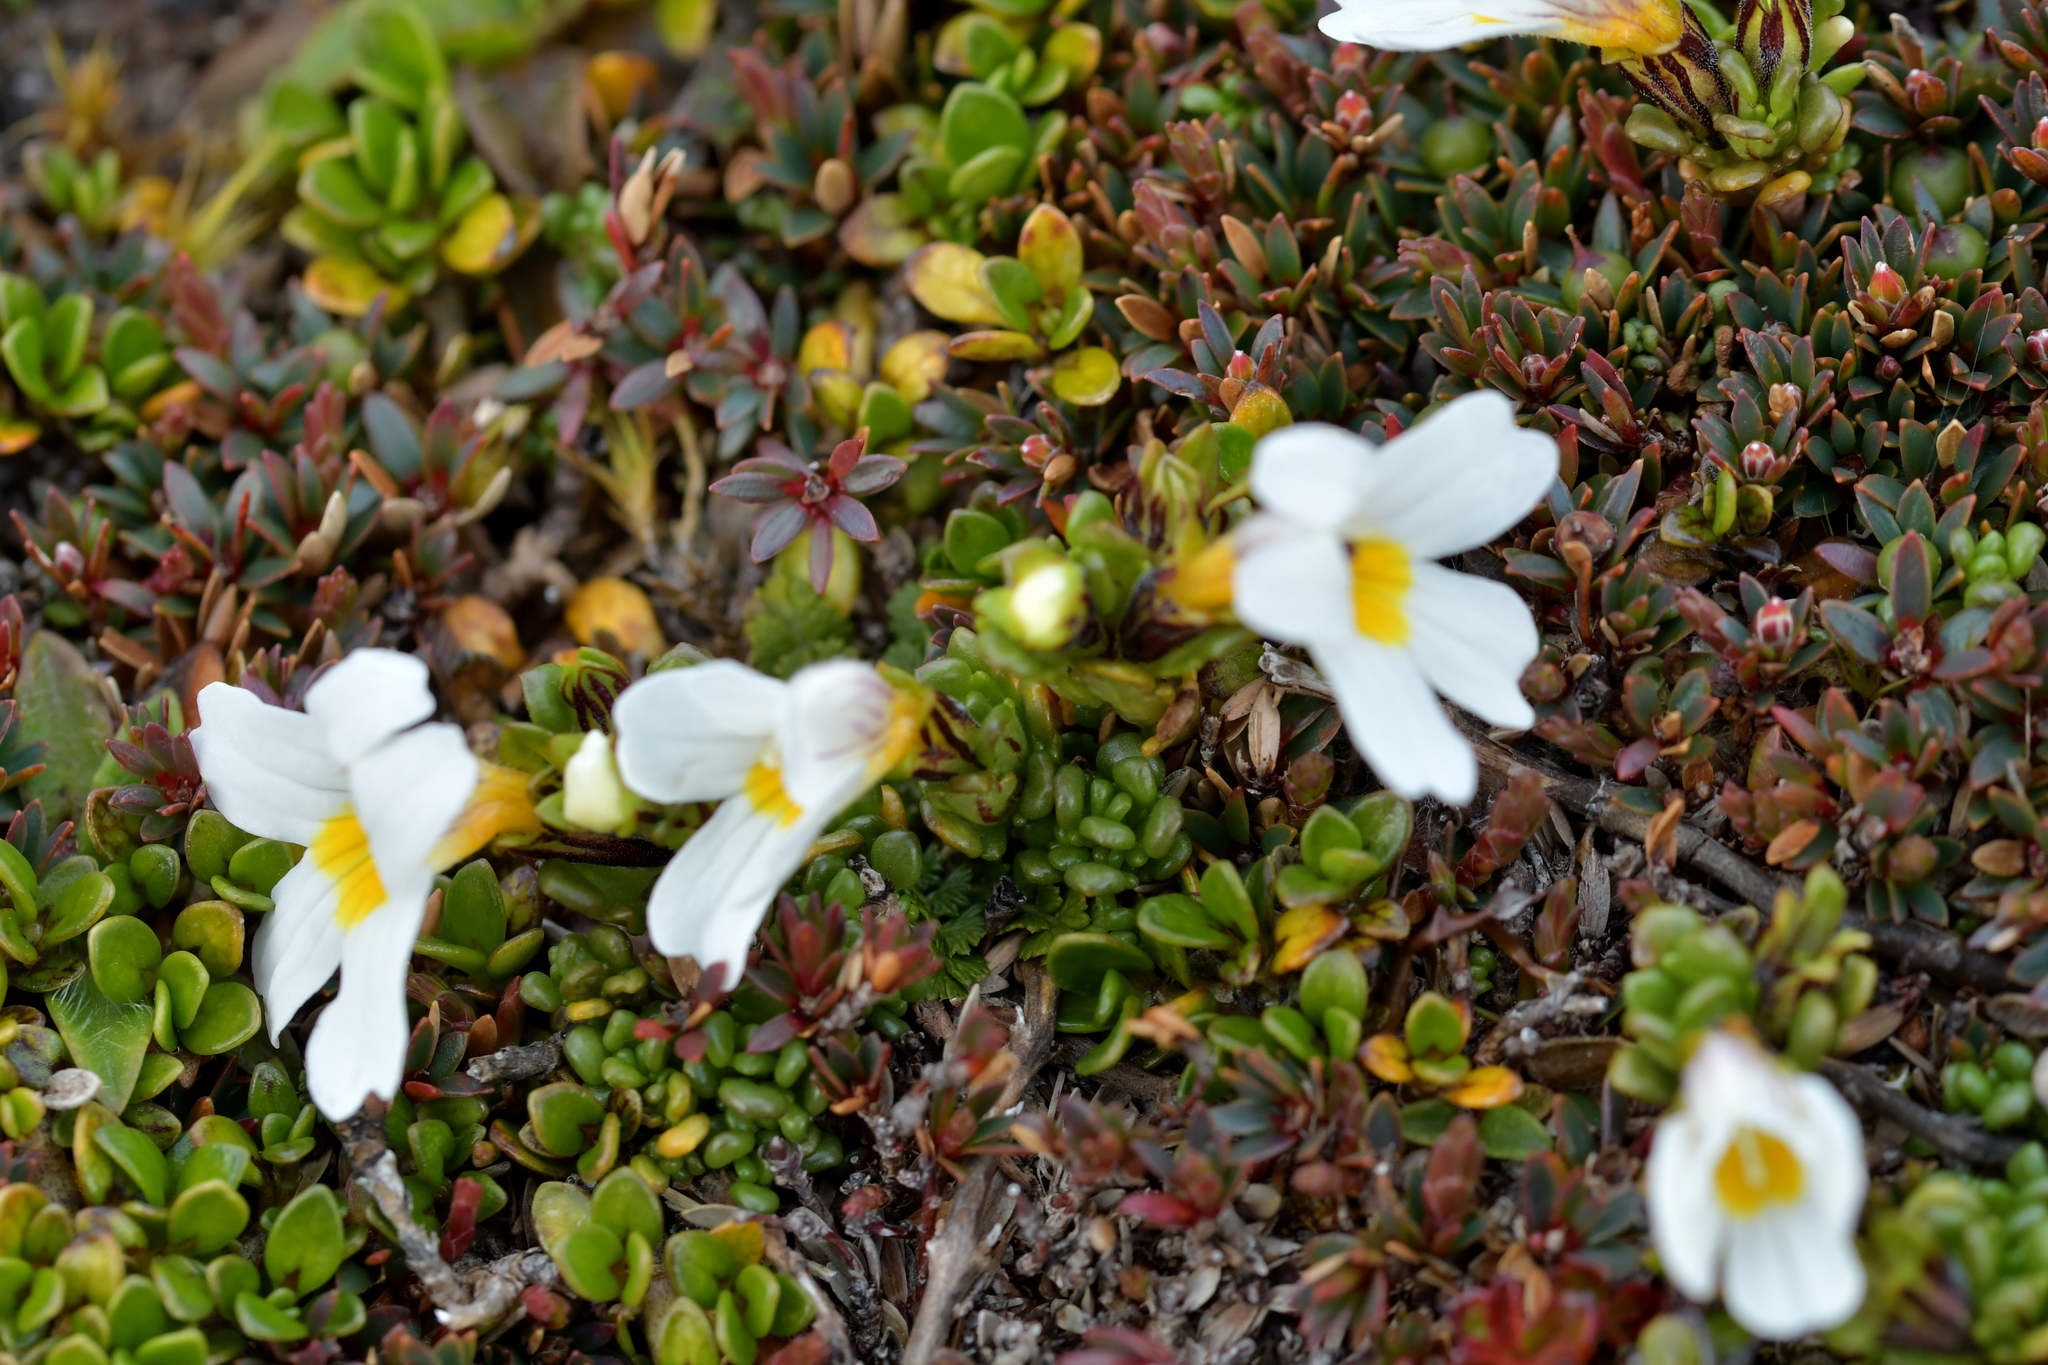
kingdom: Plantae
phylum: Tracheophyta
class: Magnoliopsida
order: Lamiales
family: Orobanchaceae
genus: Euphrasia
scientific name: Euphrasia revoluta
